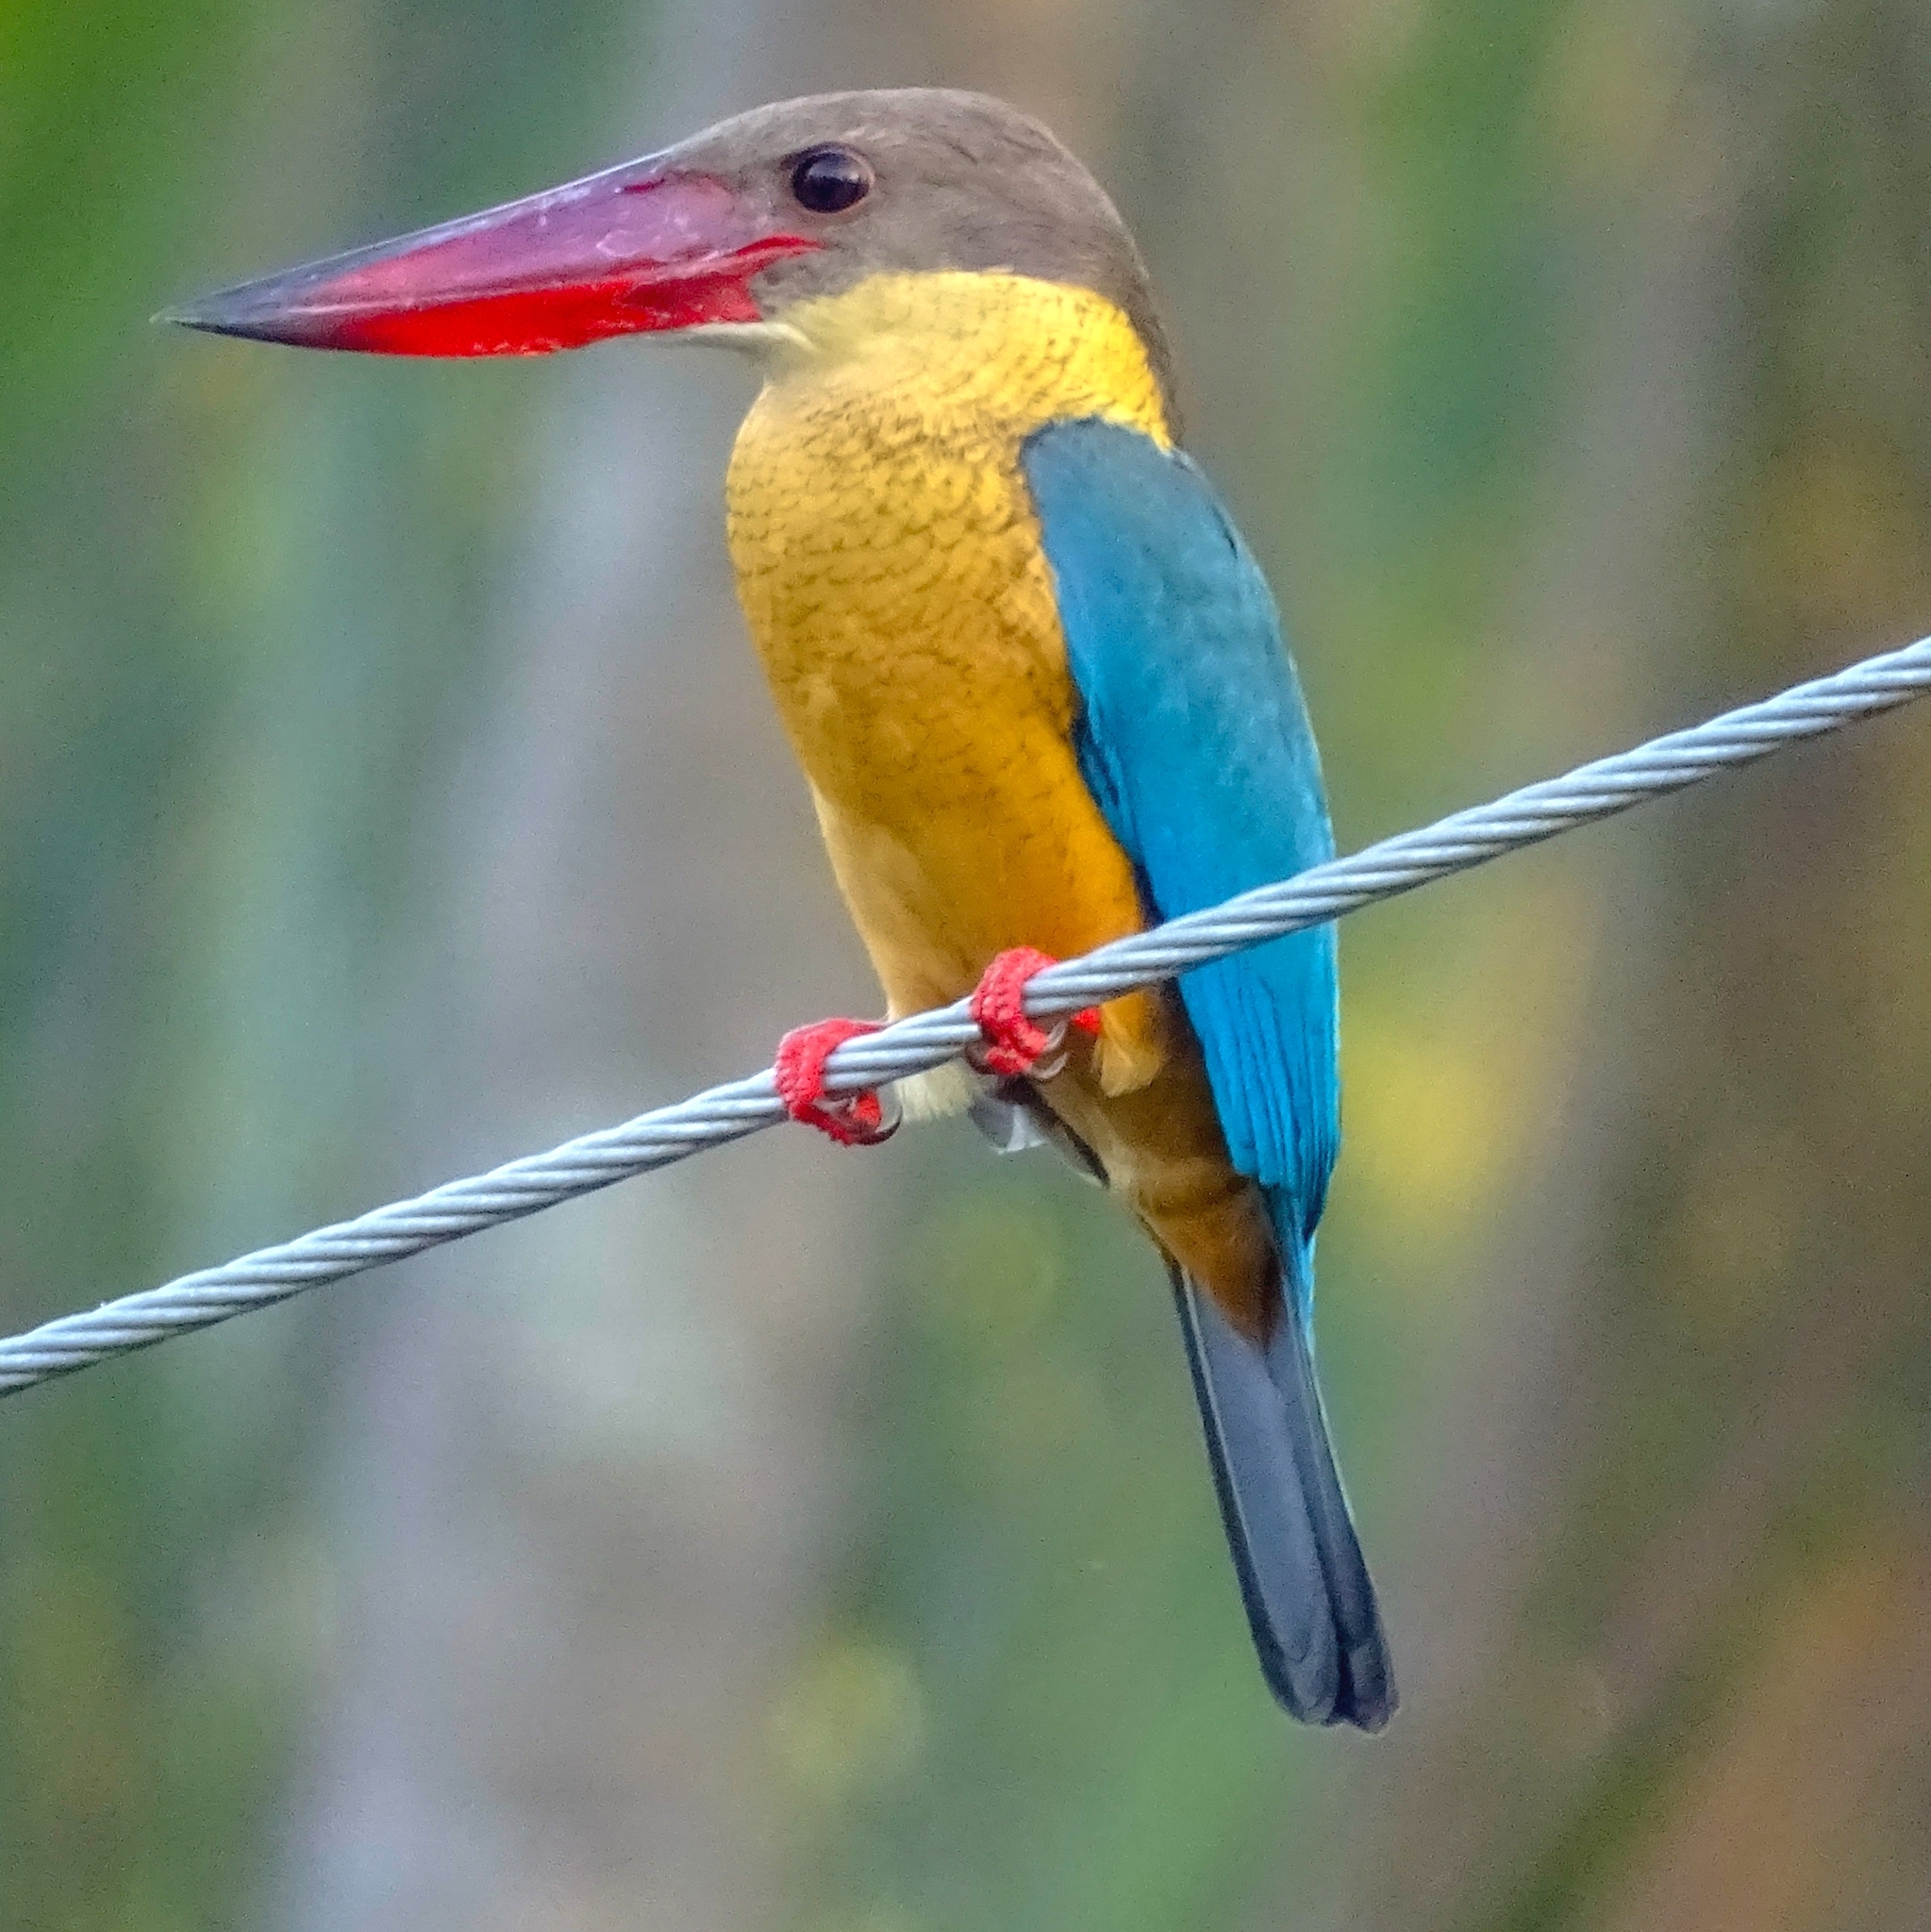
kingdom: Animalia
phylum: Chordata
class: Aves
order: Coraciiformes
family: Alcedinidae
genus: Pelargopsis
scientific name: Pelargopsis capensis
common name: Stork-billed kingfisher
